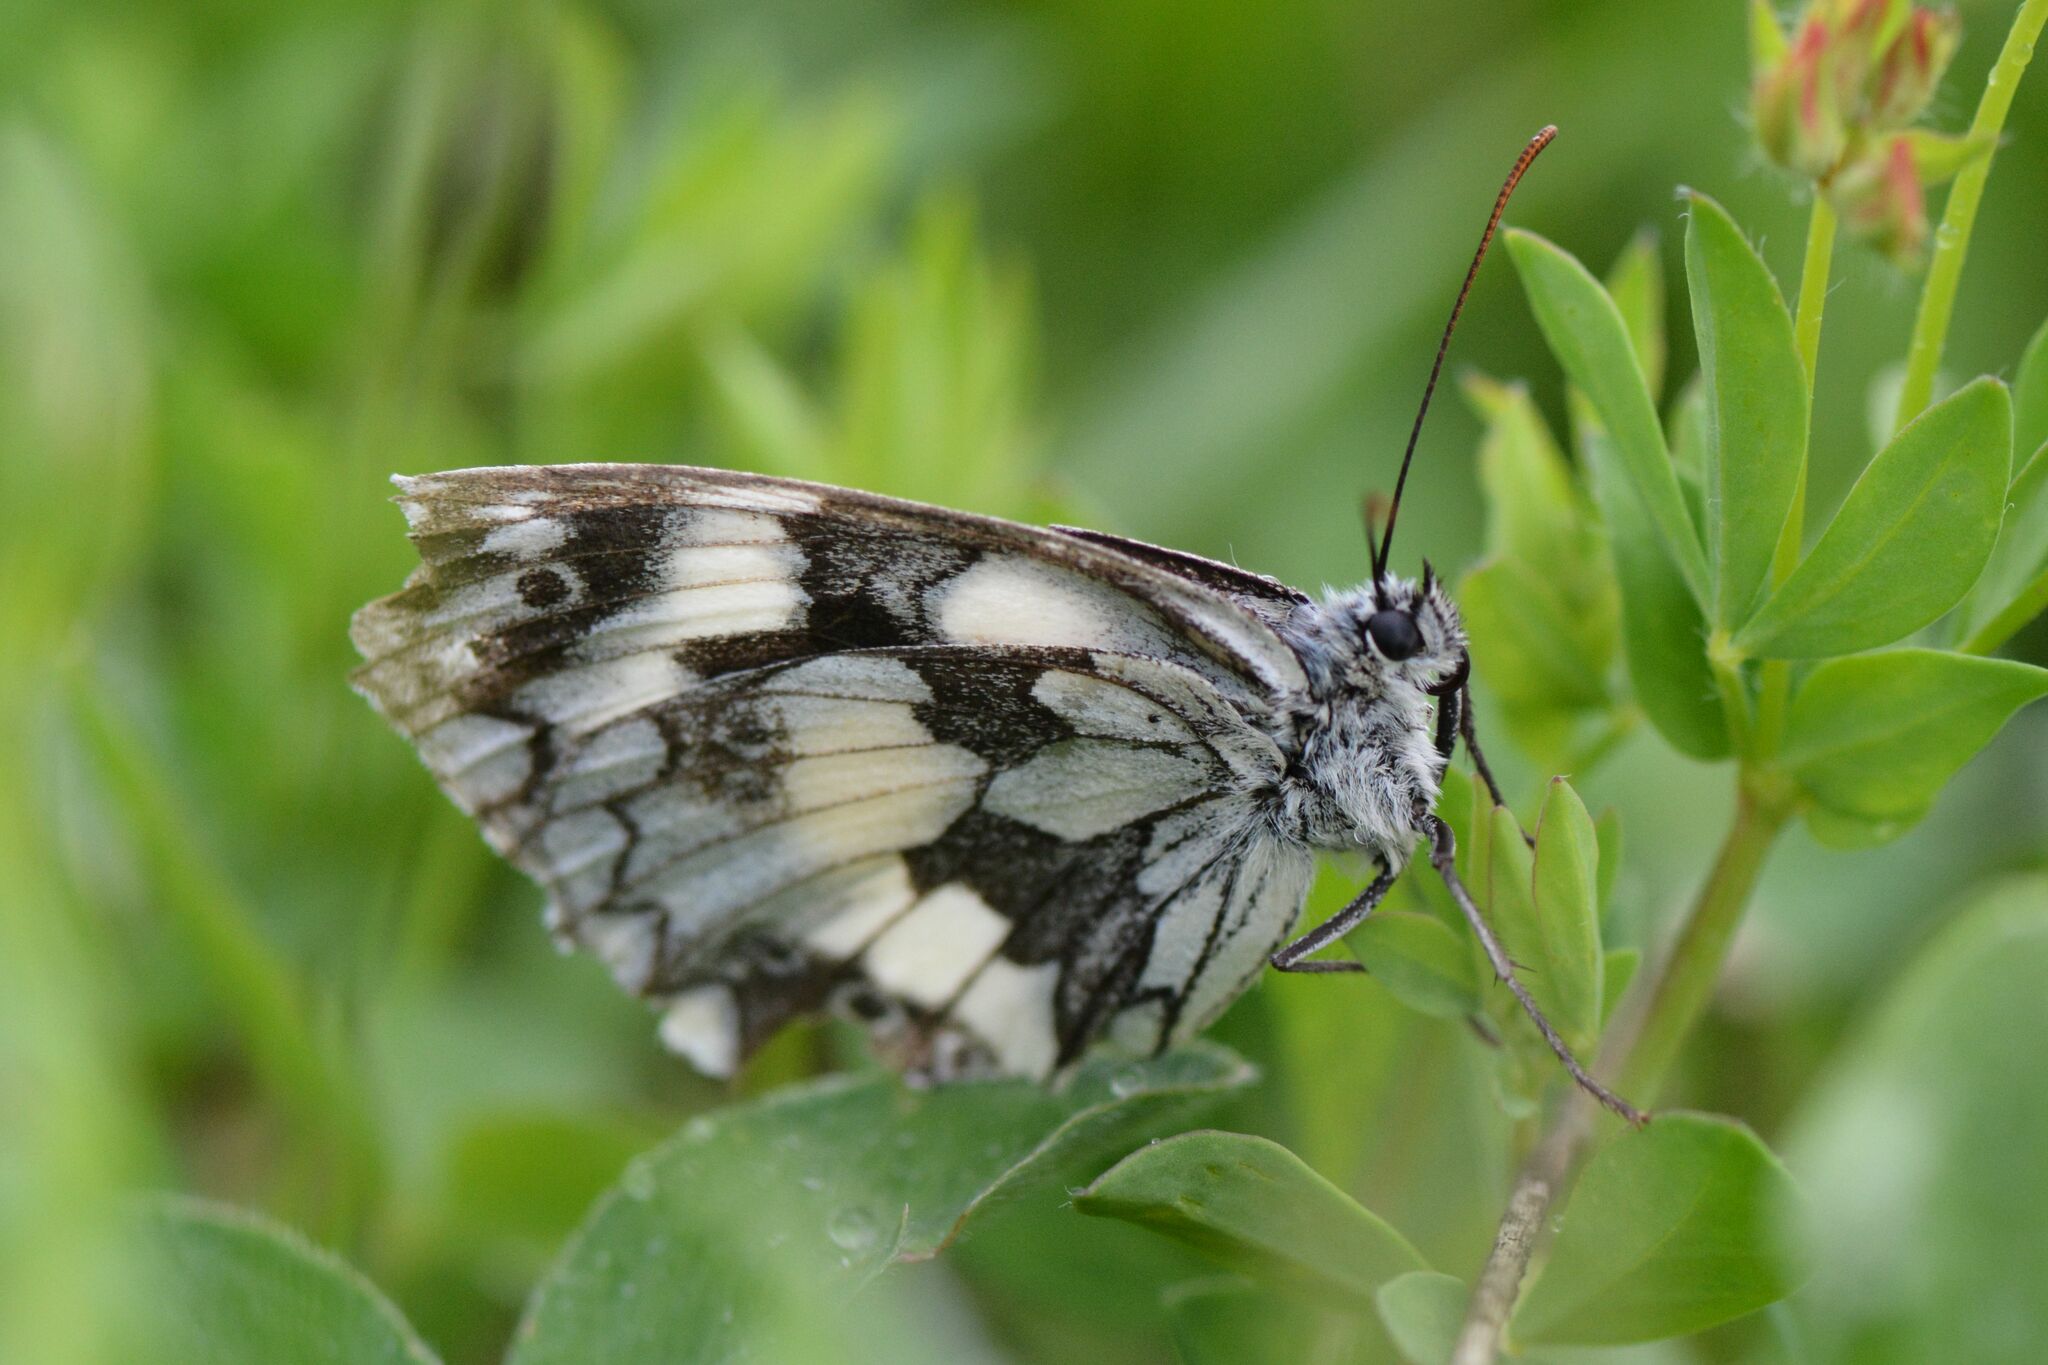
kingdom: Animalia
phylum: Arthropoda
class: Insecta
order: Lepidoptera
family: Nymphalidae
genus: Melanargia
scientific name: Melanargia galathea
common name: Marbled white
